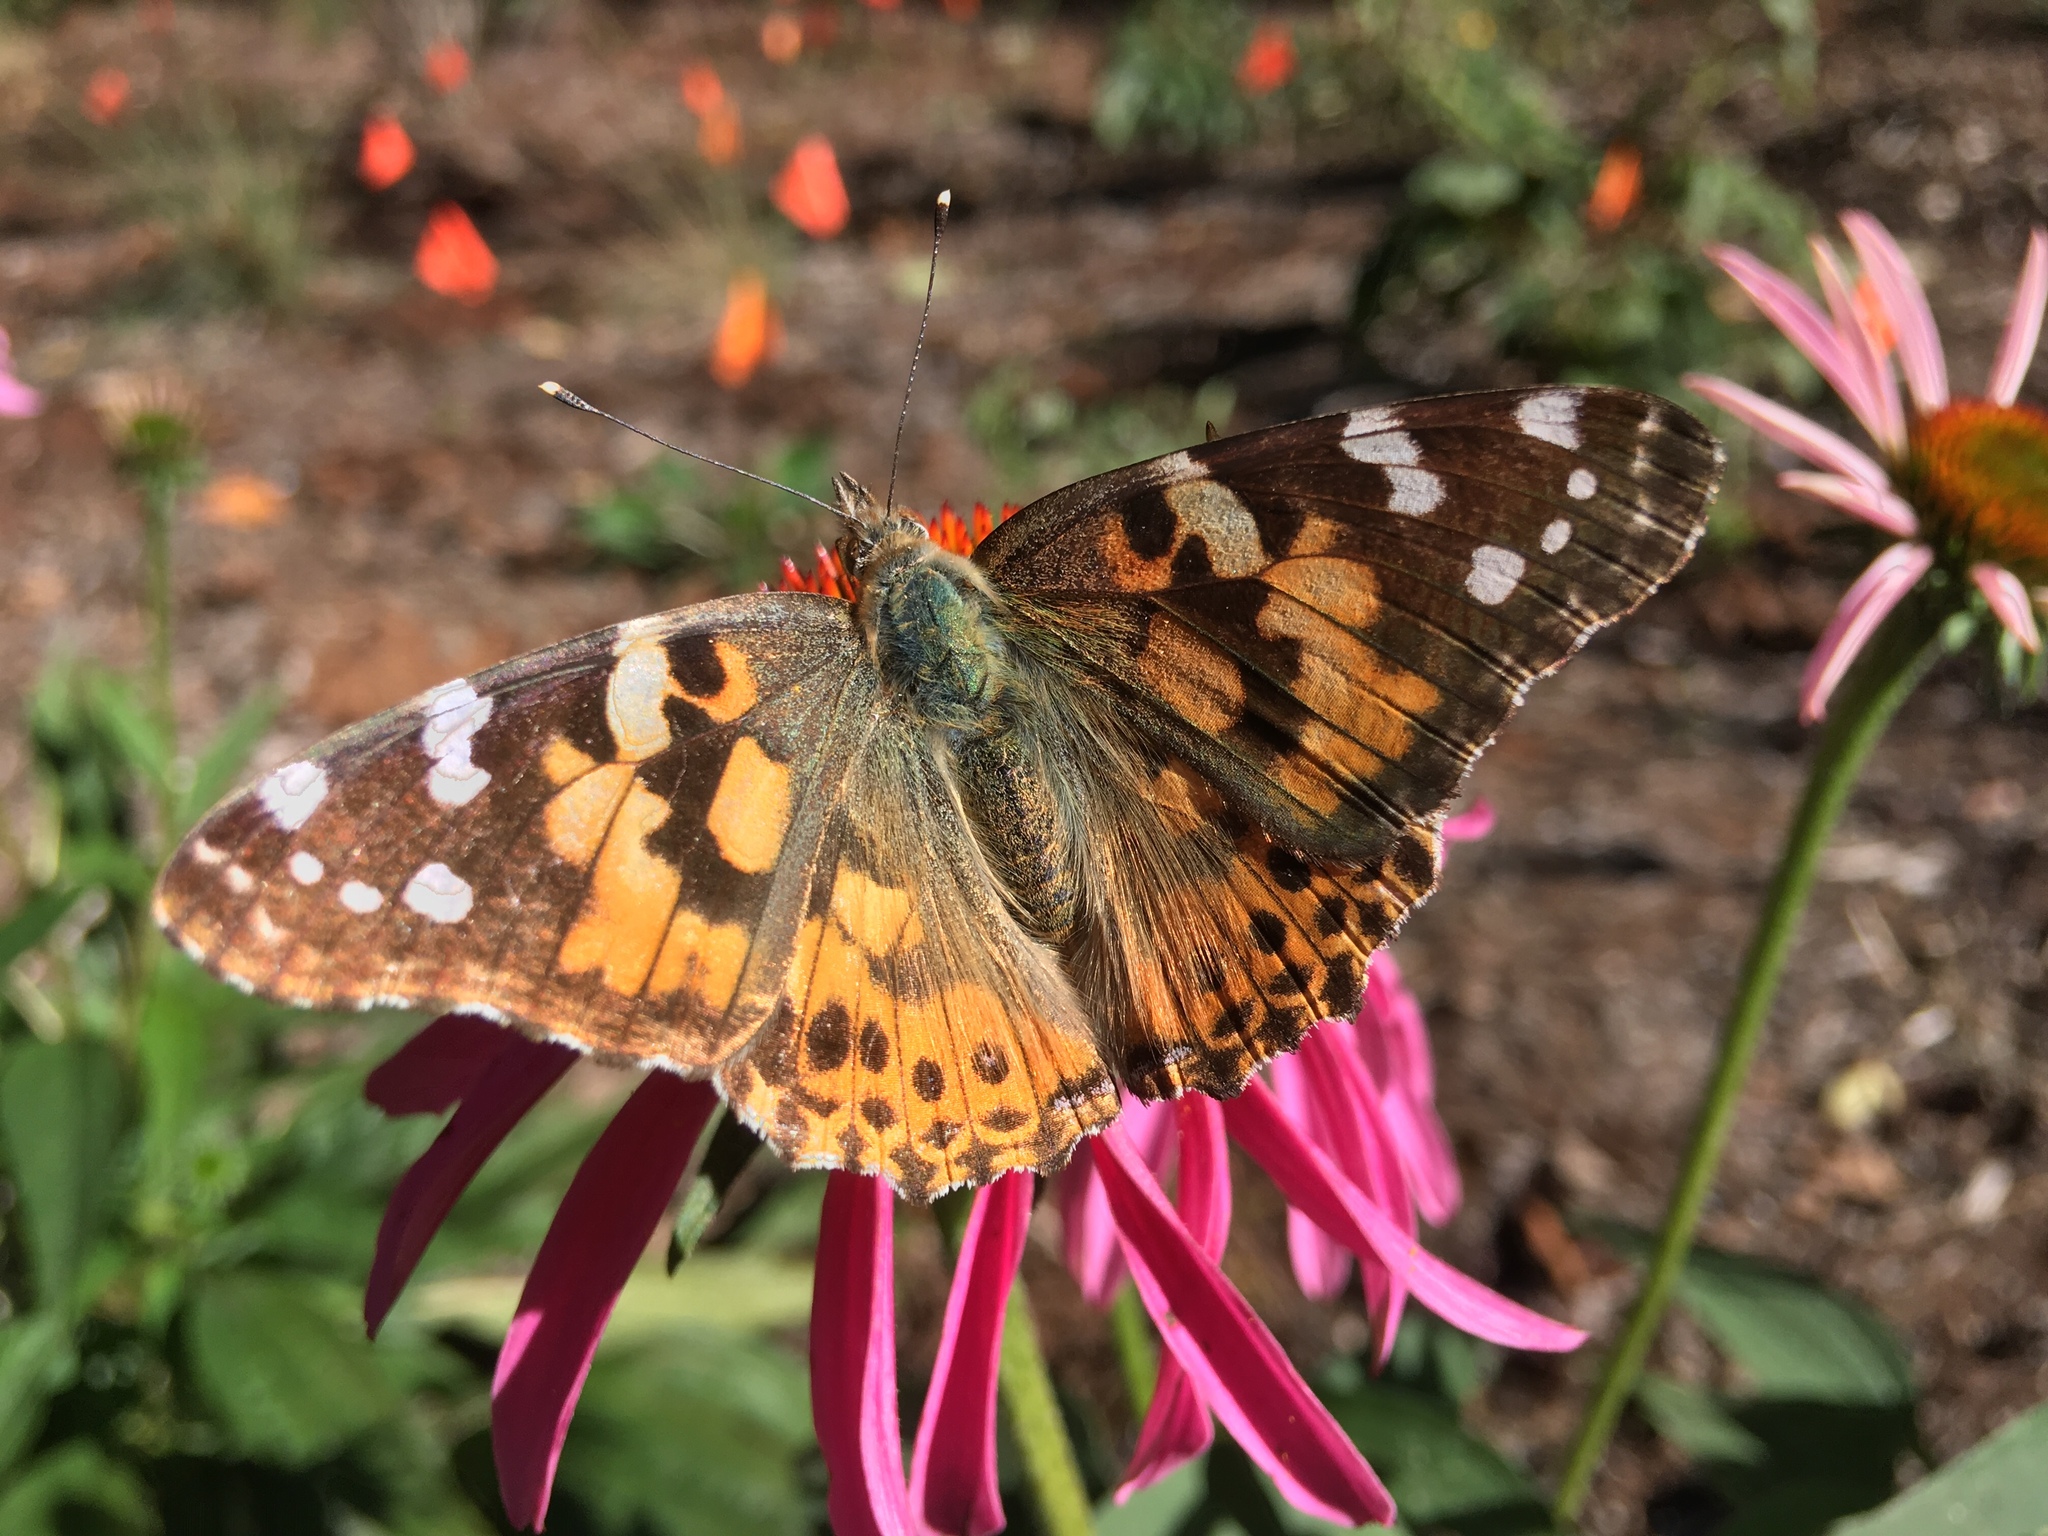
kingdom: Animalia
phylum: Arthropoda
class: Insecta
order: Lepidoptera
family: Nymphalidae
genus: Vanessa
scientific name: Vanessa cardui
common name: Painted lady
